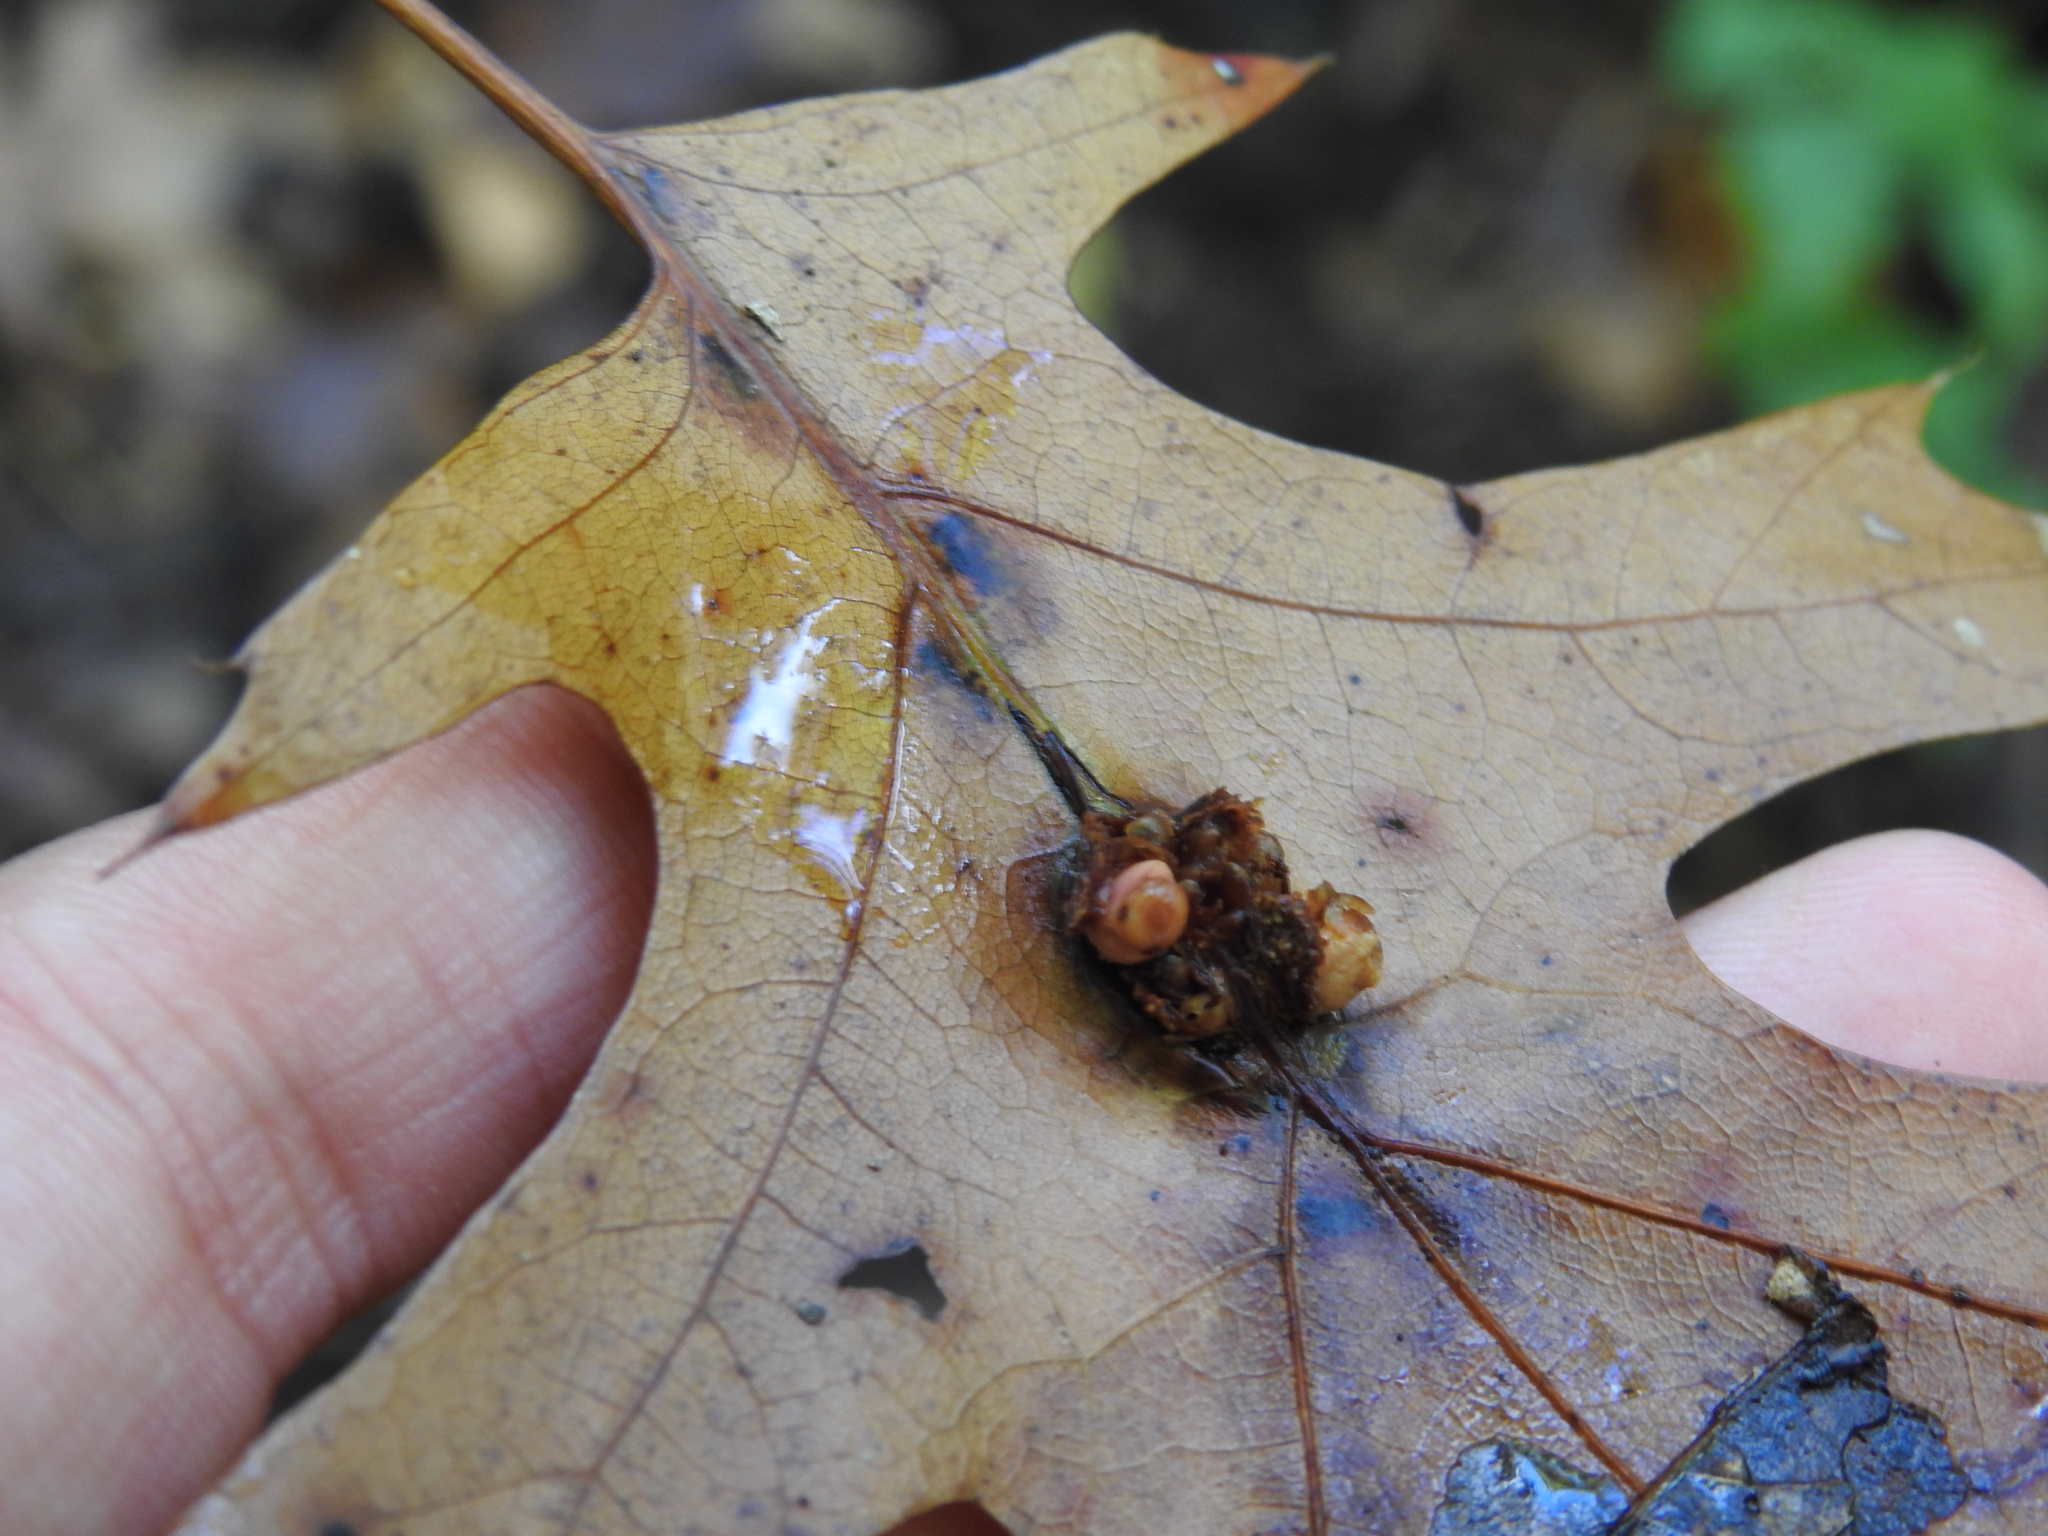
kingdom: Animalia
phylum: Arthropoda
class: Insecta
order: Hymenoptera
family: Cynipidae
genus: Kokkocynips
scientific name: Kokkocynips decidua
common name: Oak wheat gall
